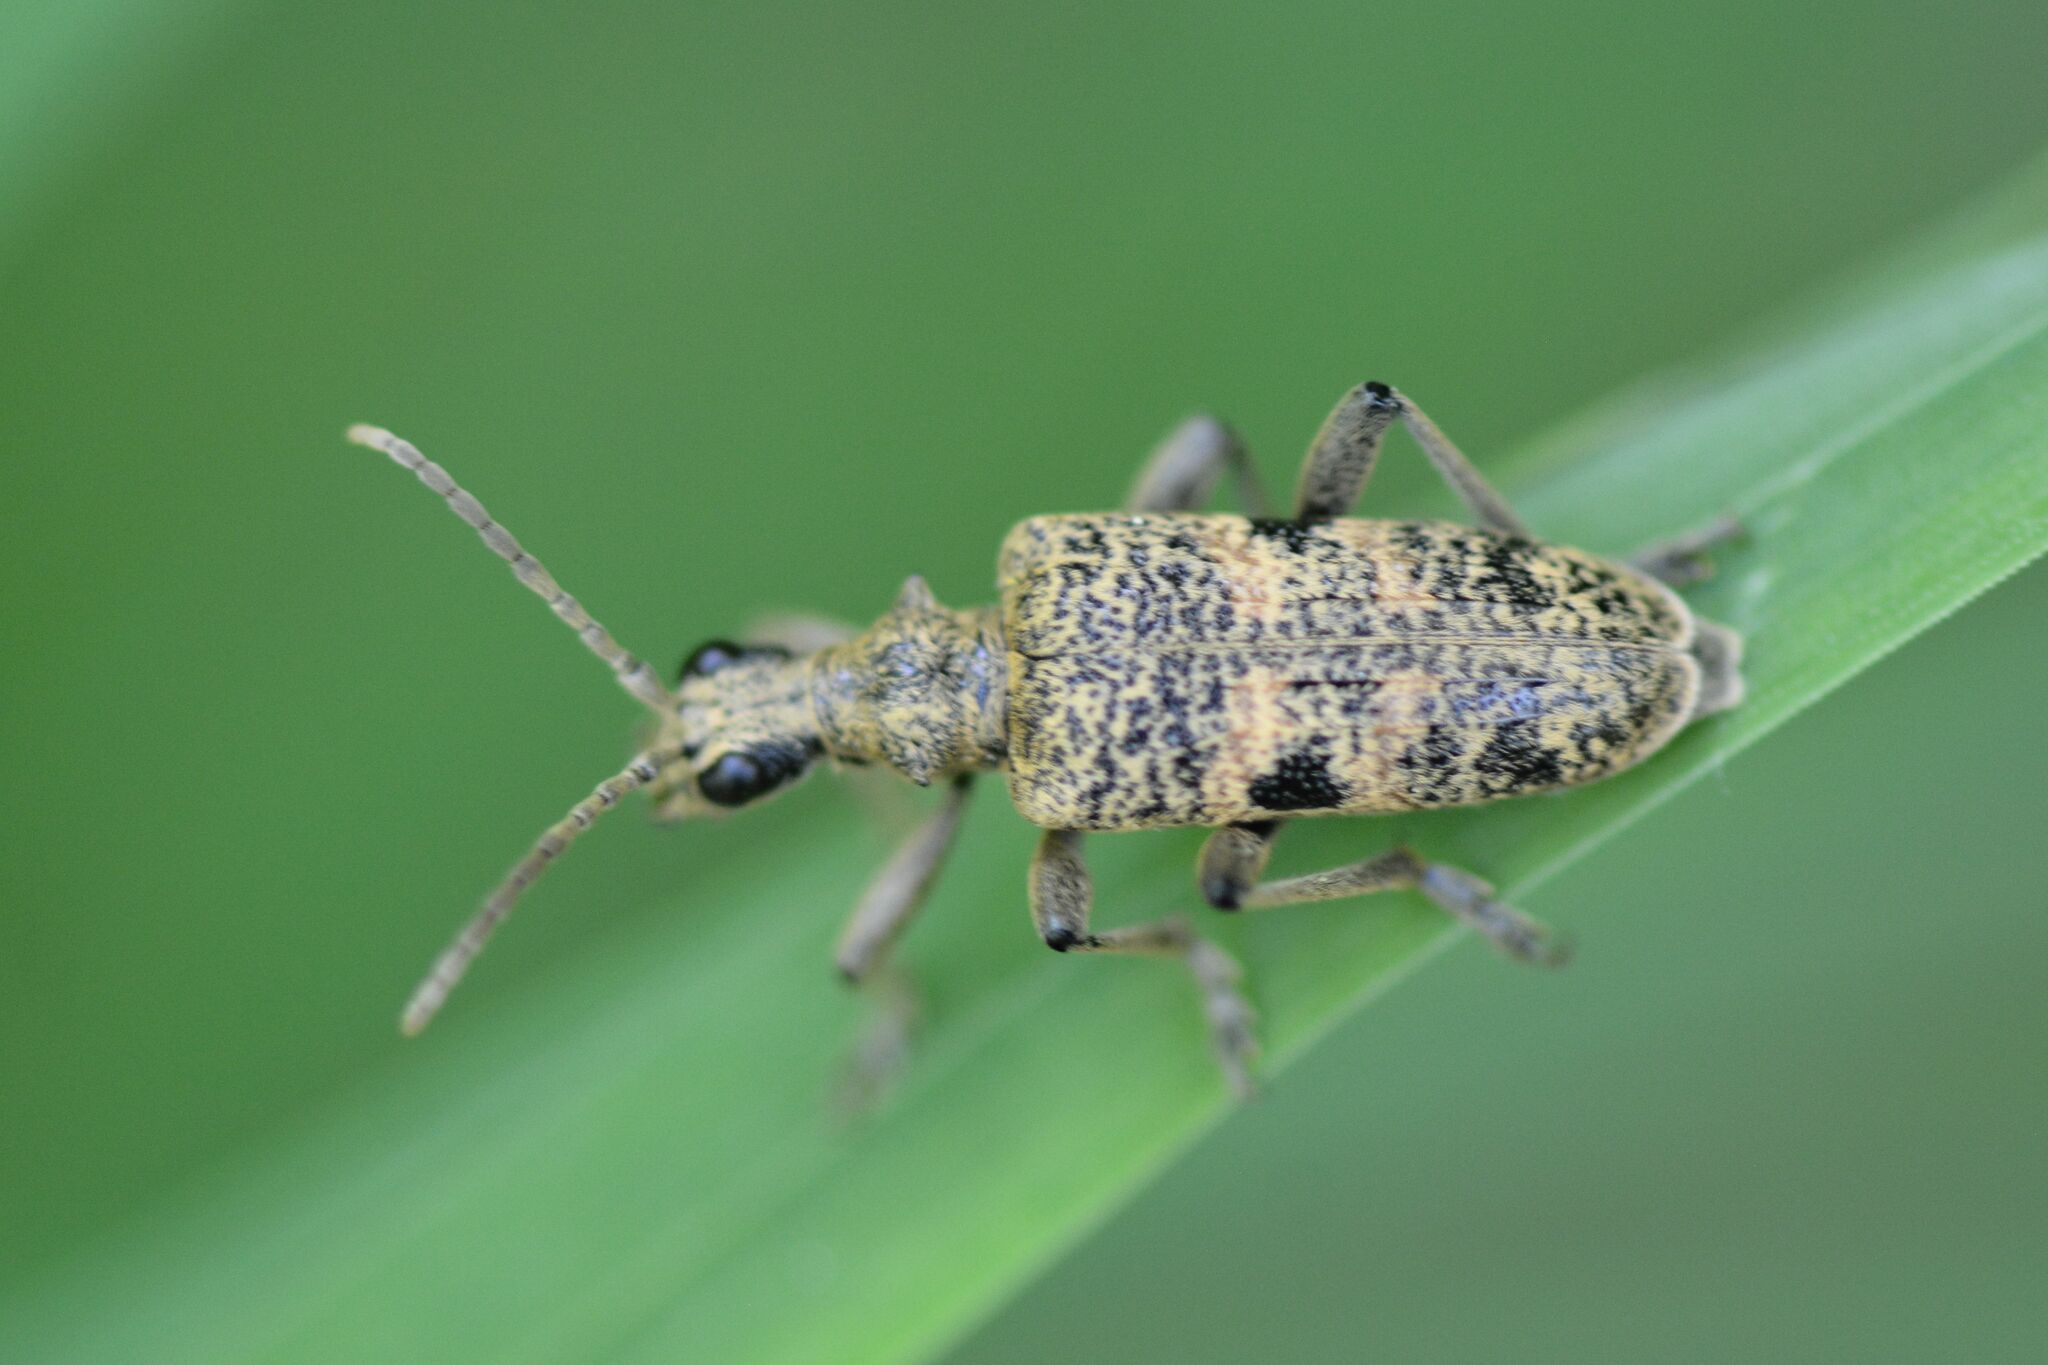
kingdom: Animalia
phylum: Arthropoda
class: Insecta
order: Coleoptera
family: Cerambycidae
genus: Rhagium
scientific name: Rhagium mordax
